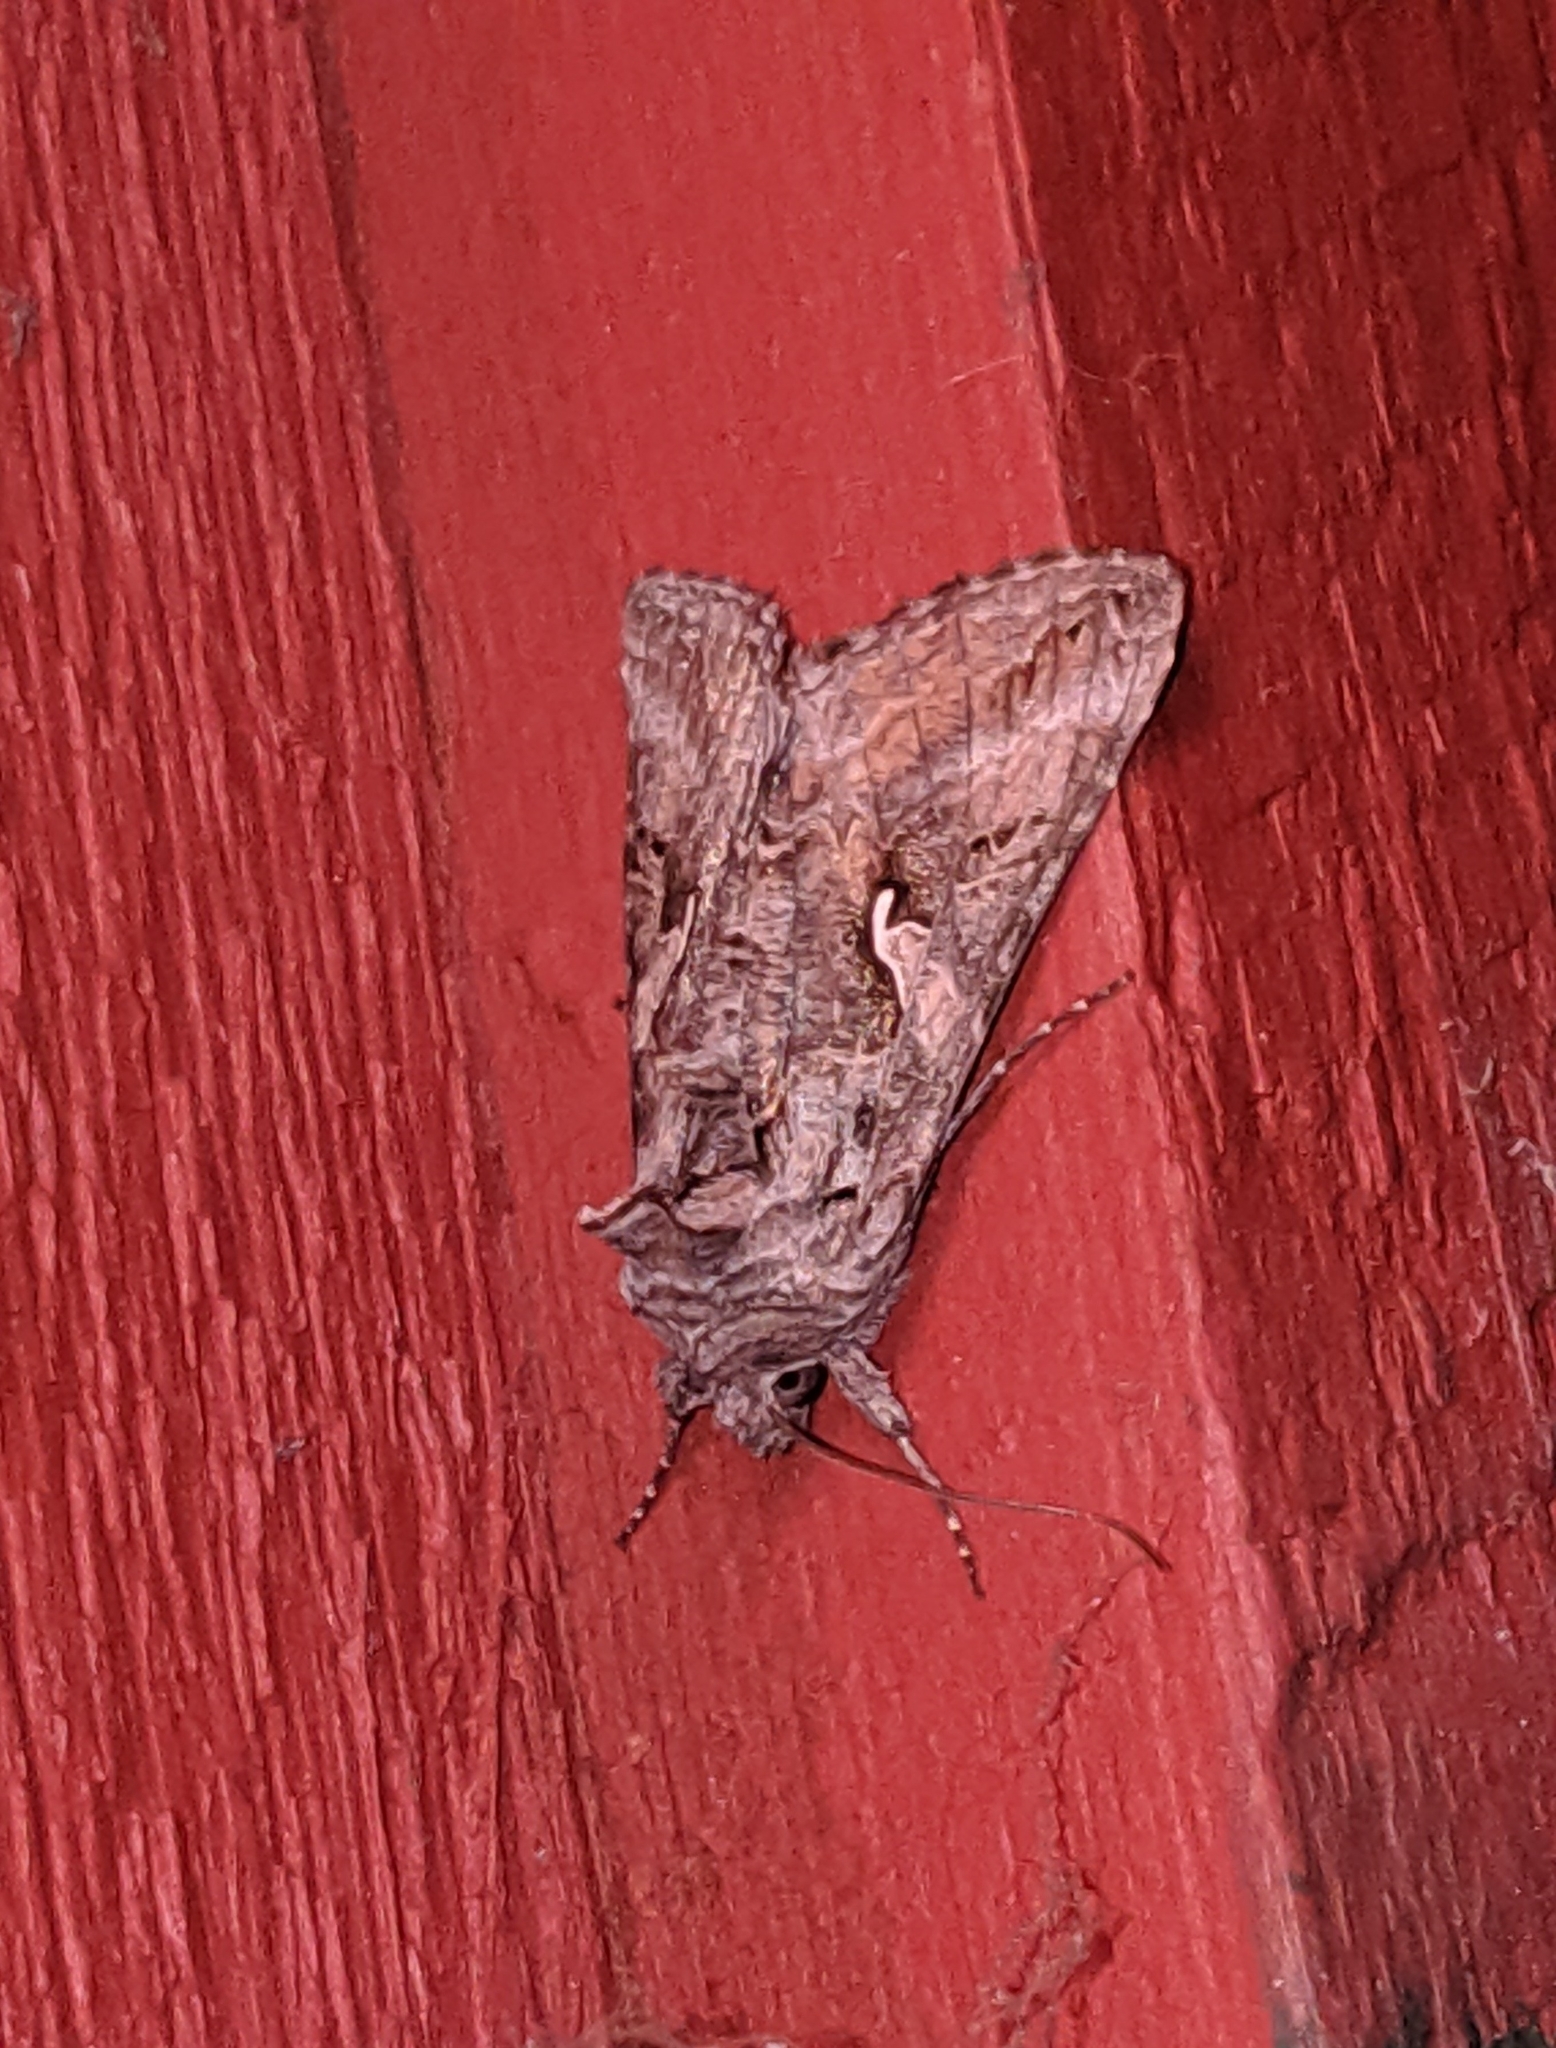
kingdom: Animalia
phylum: Arthropoda
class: Insecta
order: Lepidoptera
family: Noctuidae
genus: Autographa
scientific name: Autographa californica
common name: Alfalfa looper
